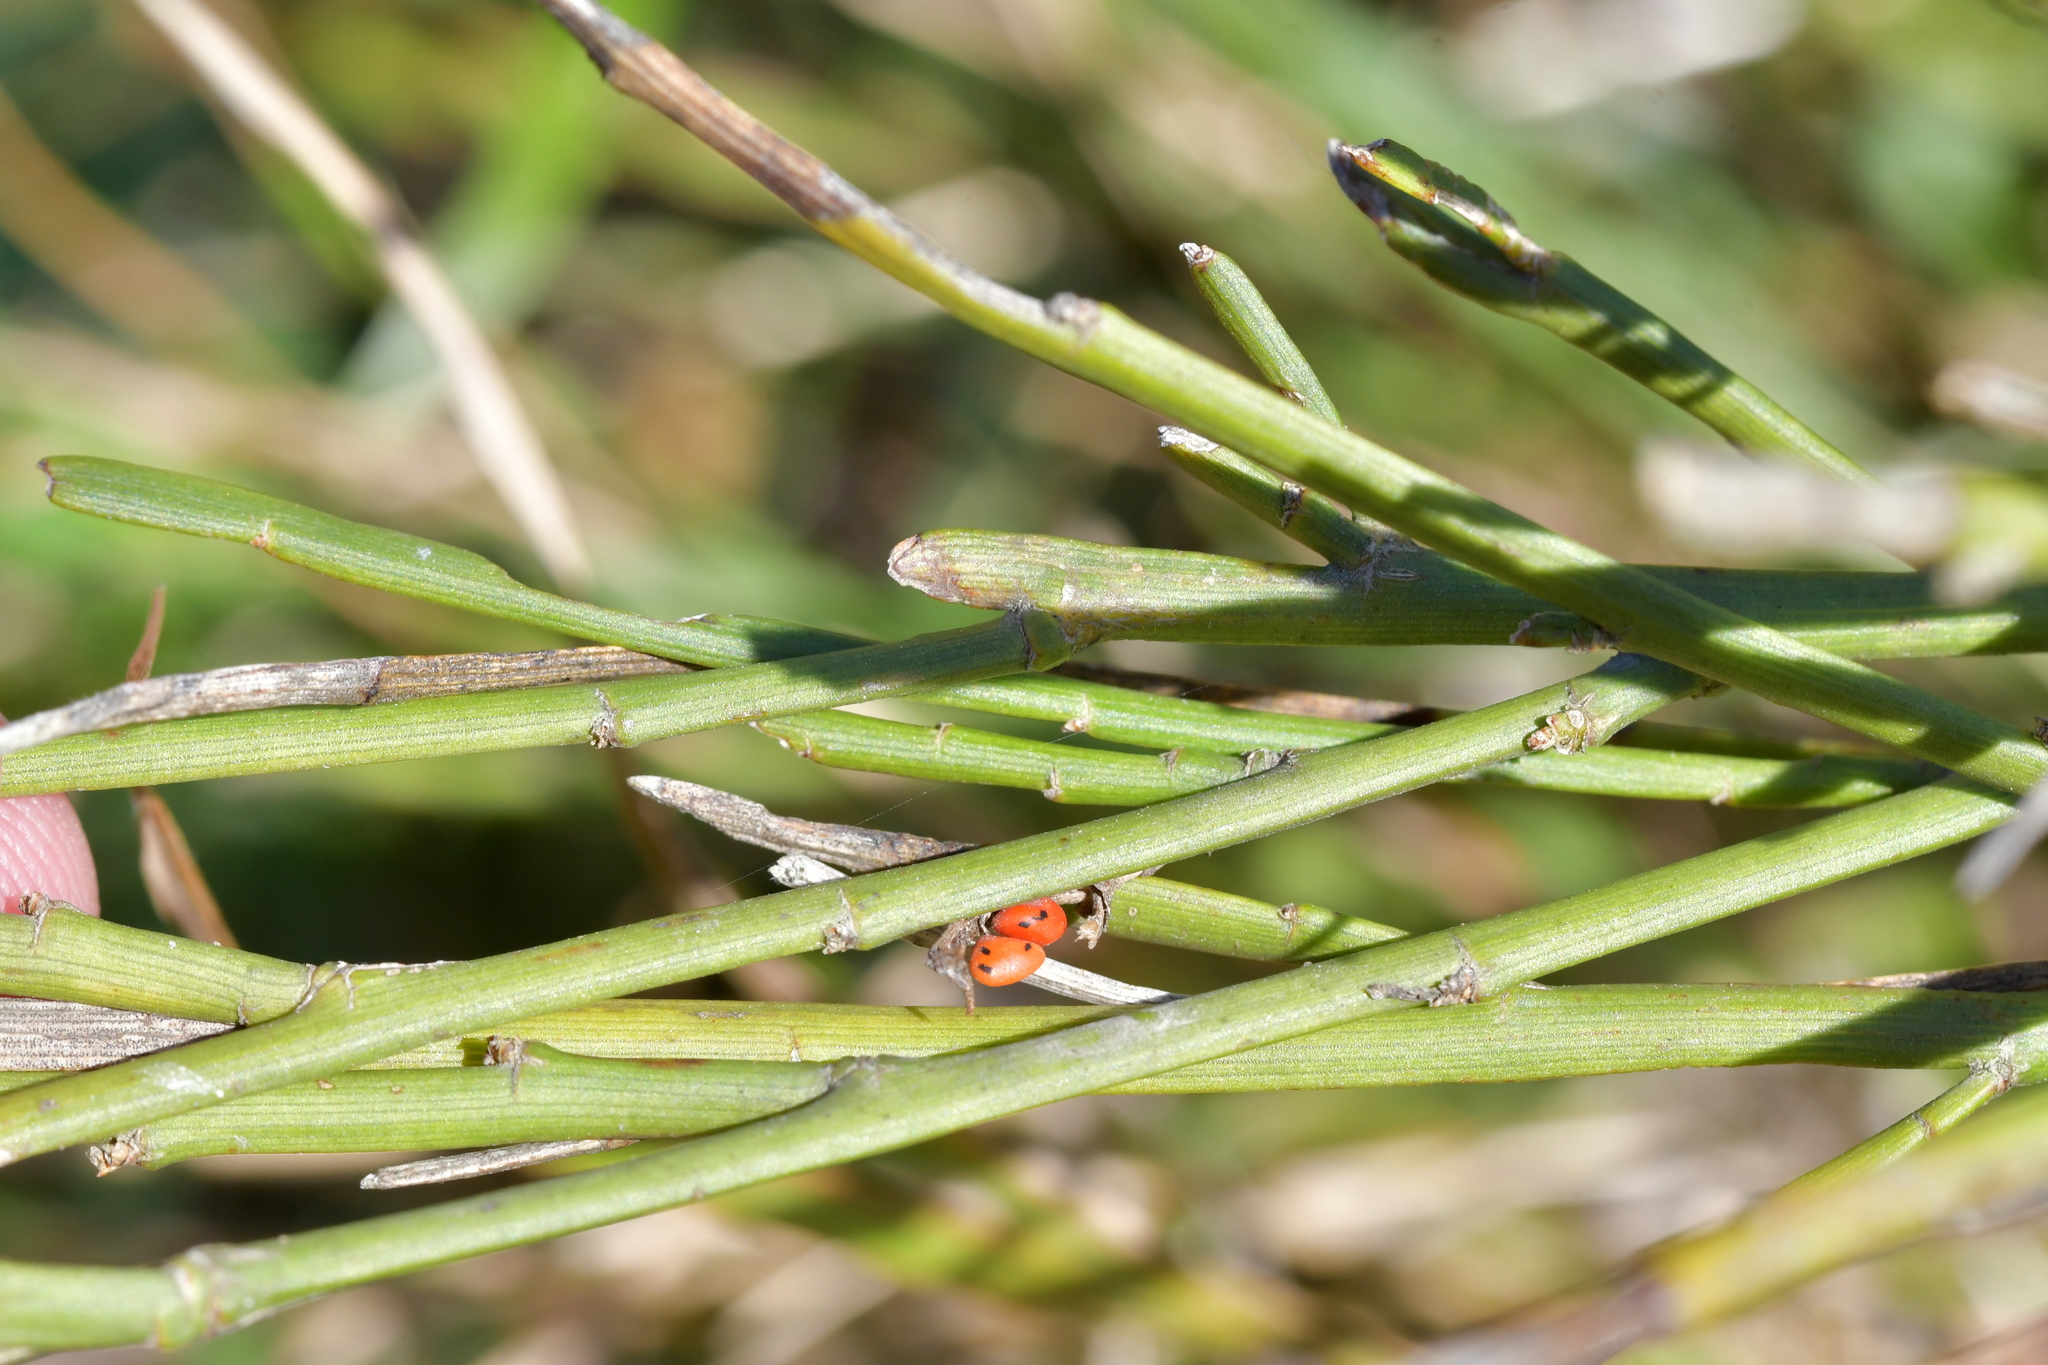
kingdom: Plantae
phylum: Tracheophyta
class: Magnoliopsida
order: Fabales
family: Fabaceae
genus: Carmichaelia
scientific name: Carmichaelia australis
